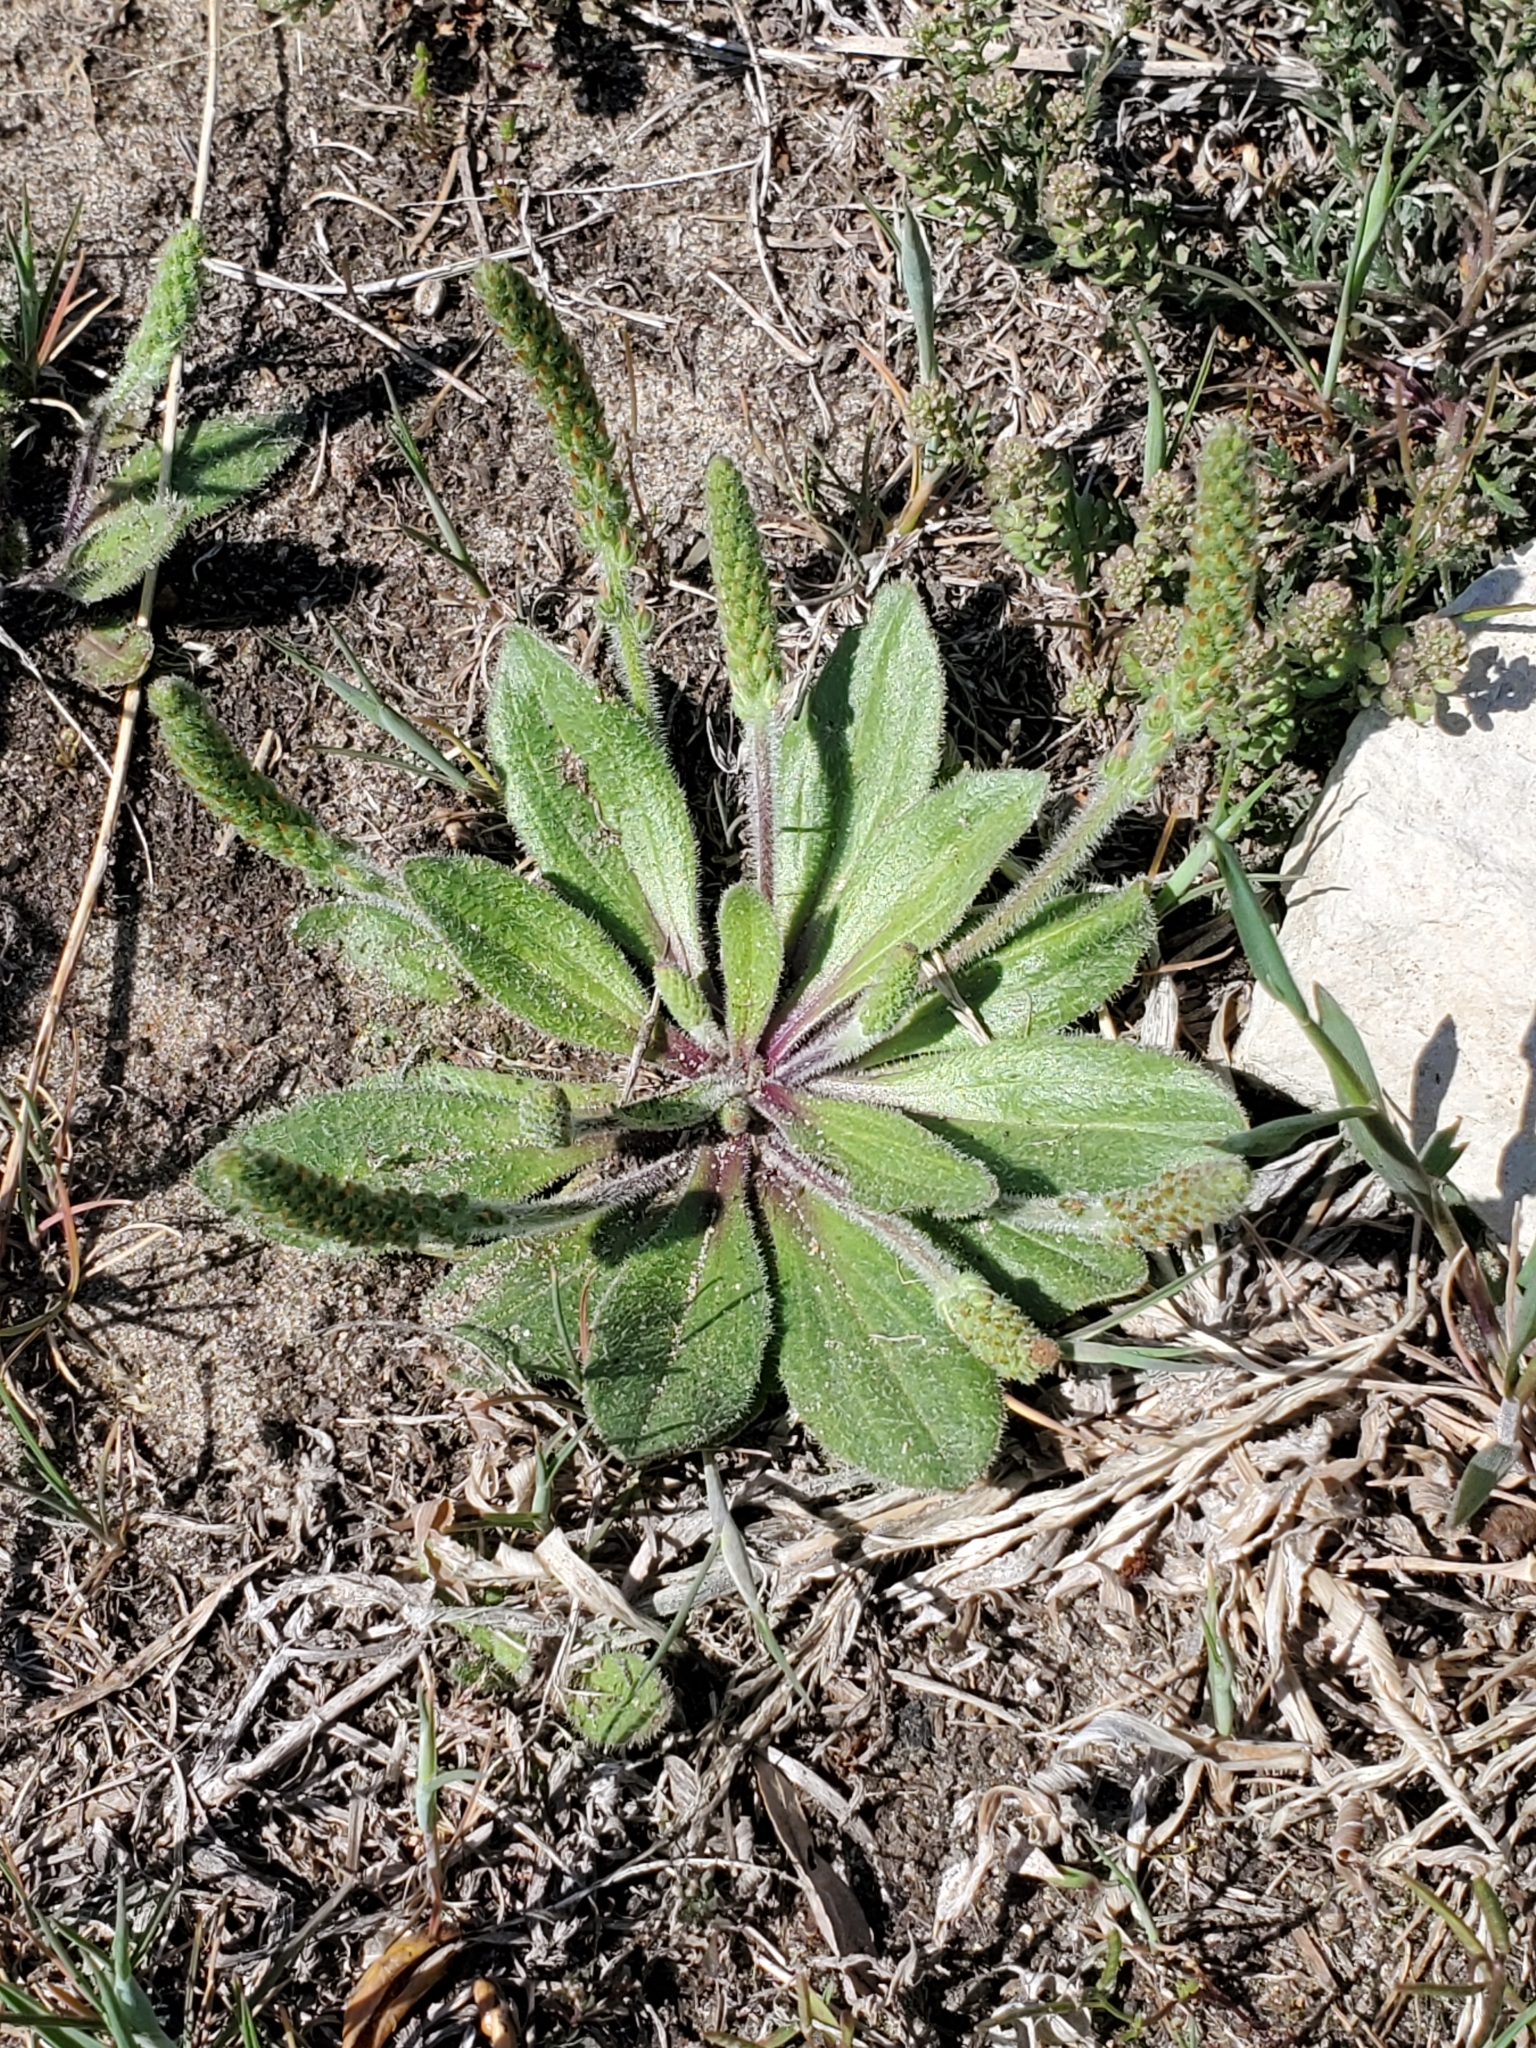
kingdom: Plantae
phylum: Tracheophyta
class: Magnoliopsida
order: Lamiales
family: Plantaginaceae
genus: Plantago
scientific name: Plantago rhodosperma
